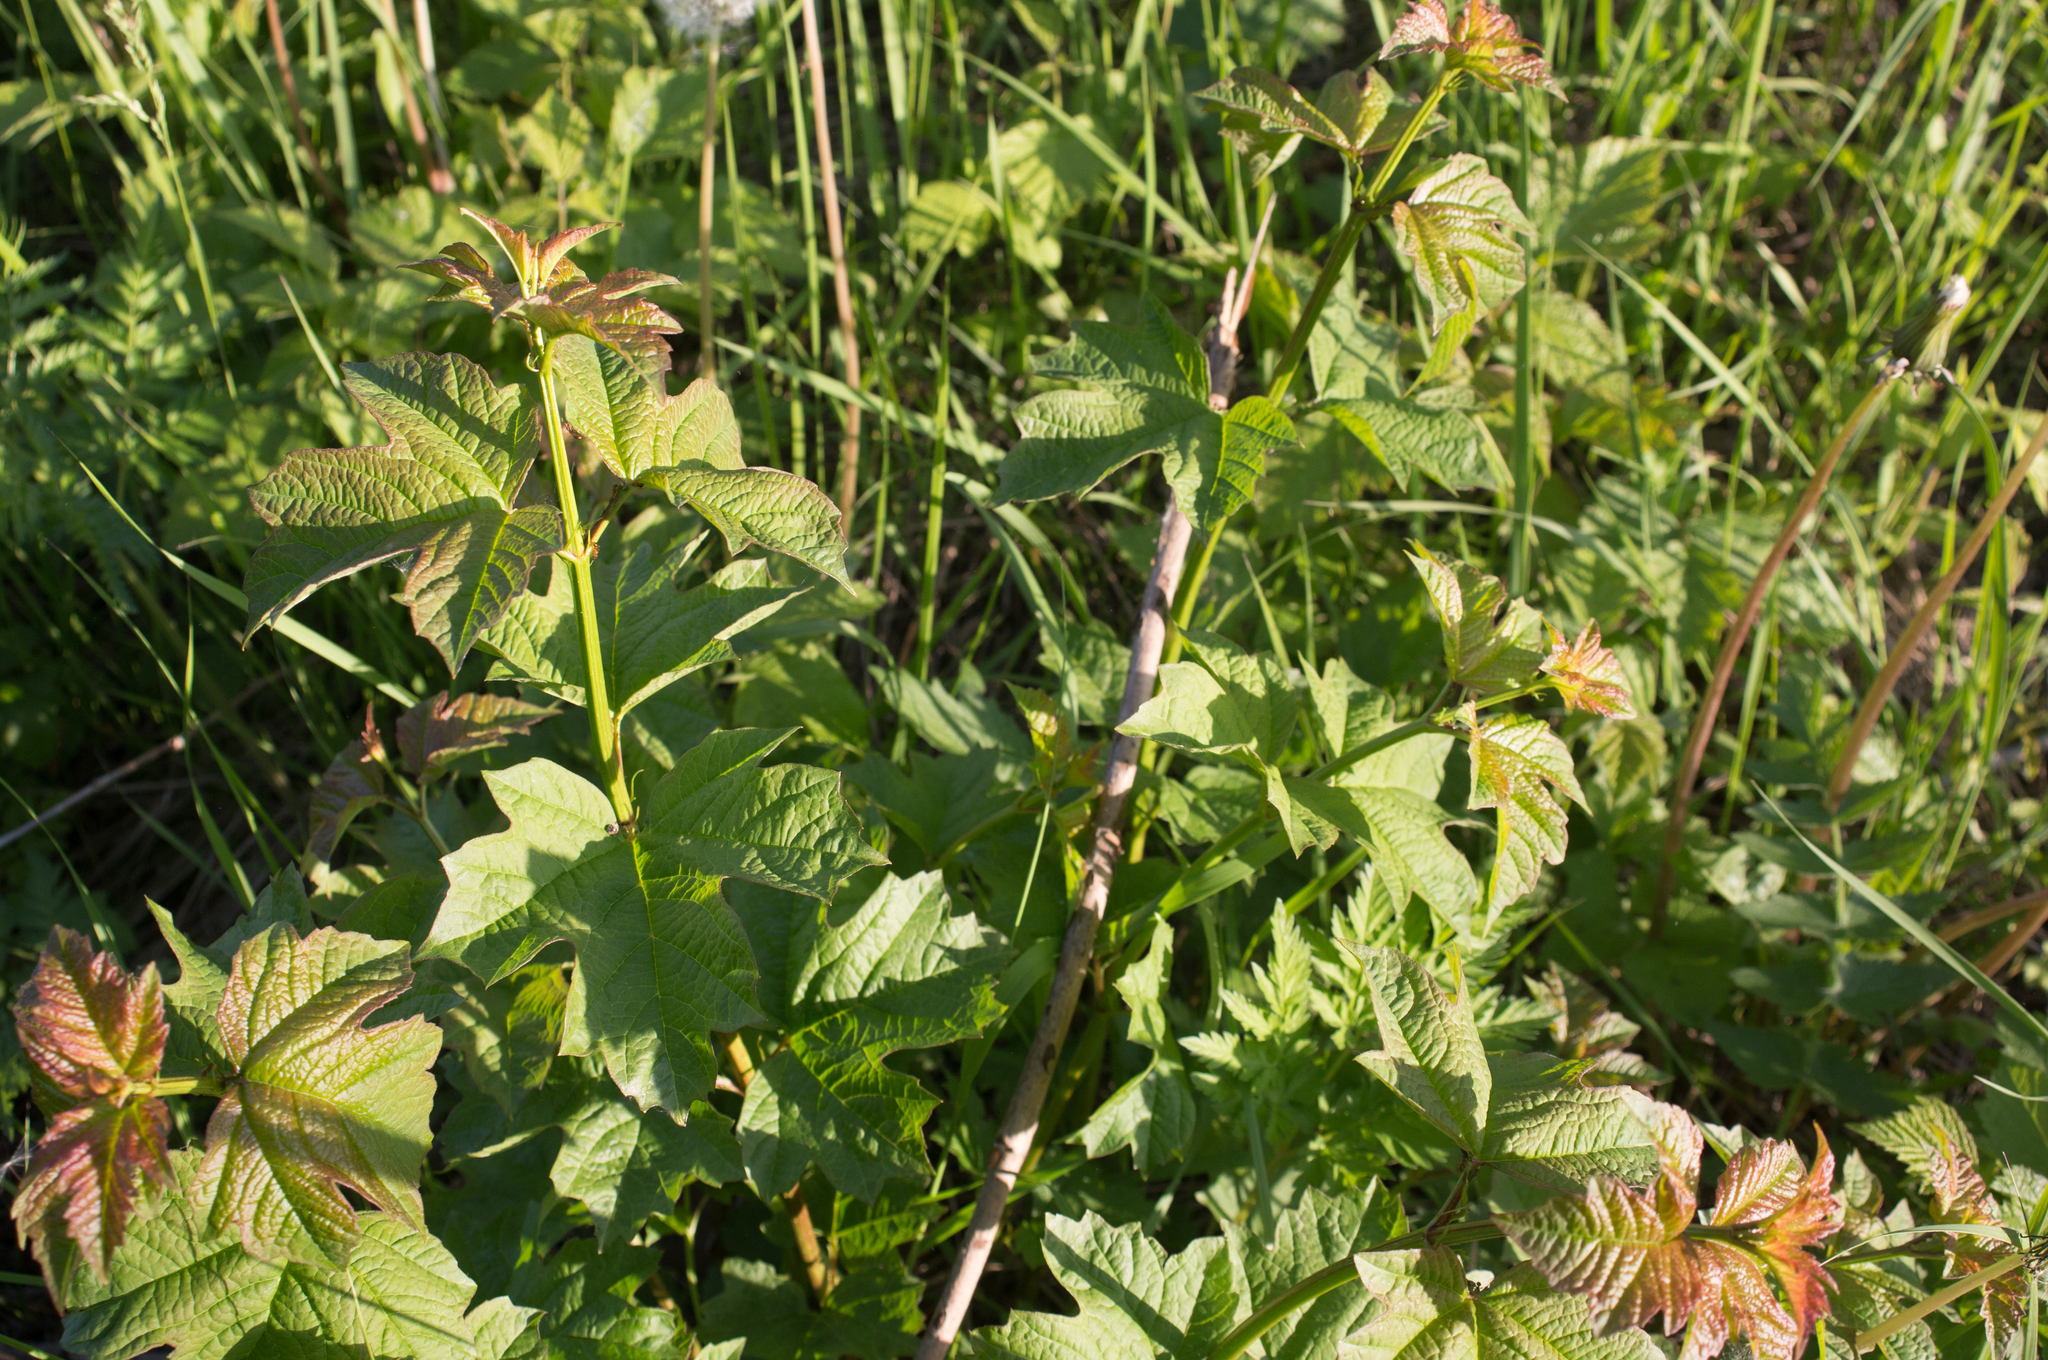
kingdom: Plantae
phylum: Tracheophyta
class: Magnoliopsida
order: Dipsacales
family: Viburnaceae
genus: Viburnum
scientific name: Viburnum opulus
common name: Guelder-rose
